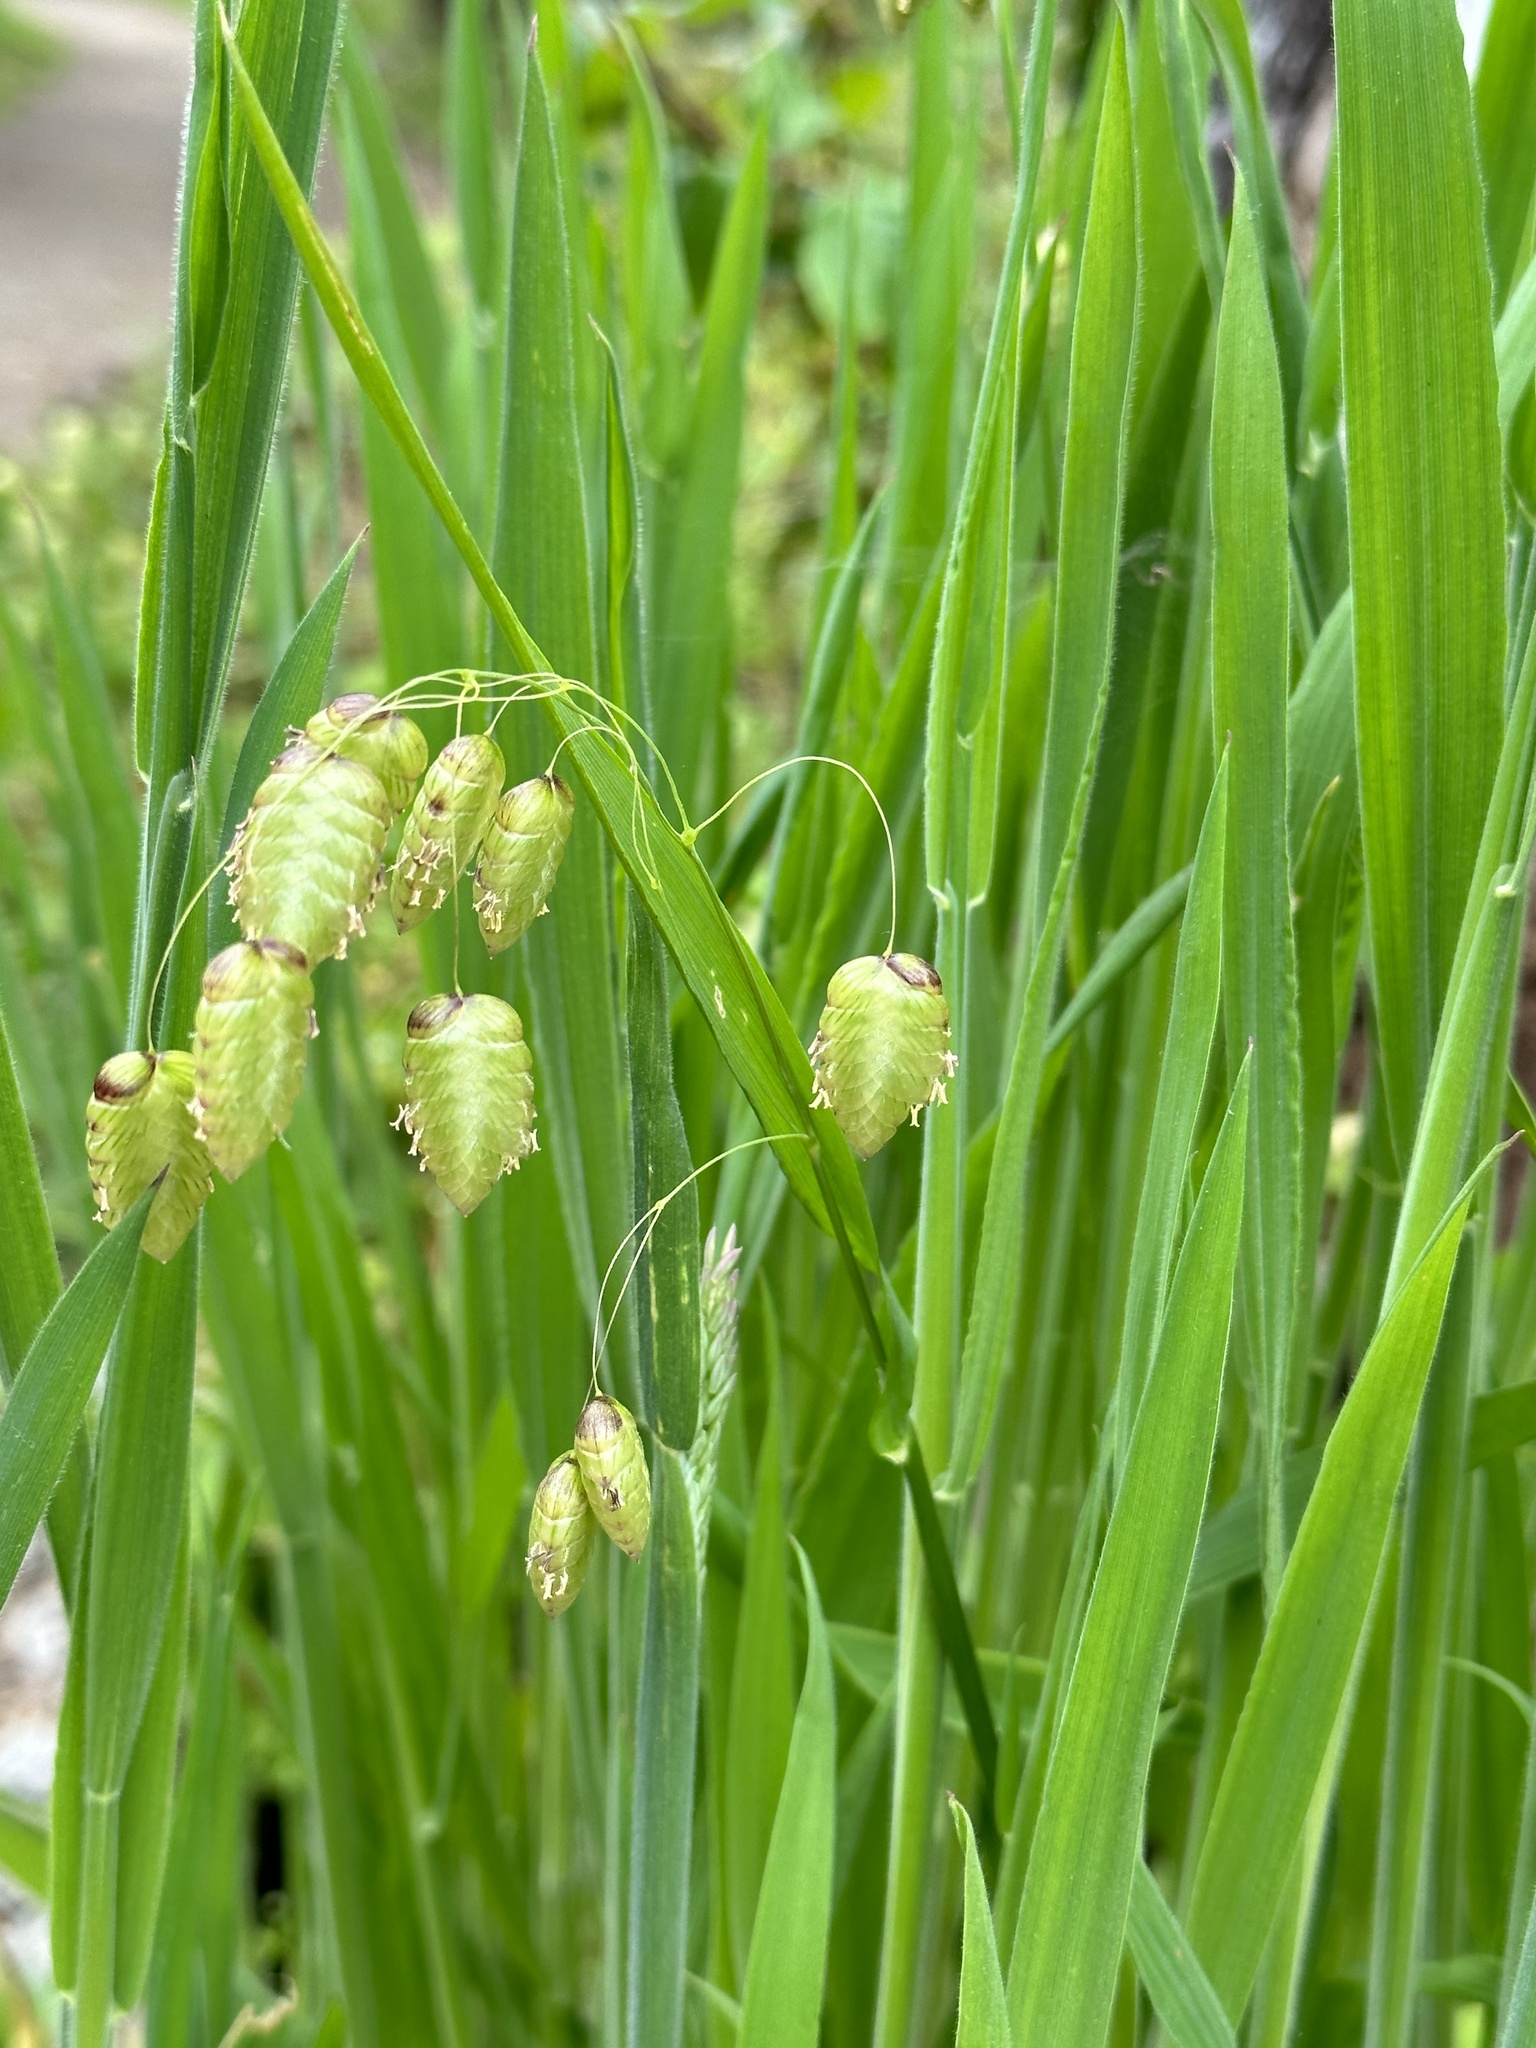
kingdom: Plantae
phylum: Tracheophyta
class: Liliopsida
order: Poales
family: Poaceae
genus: Briza
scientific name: Briza maxima
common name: Big quakinggrass
